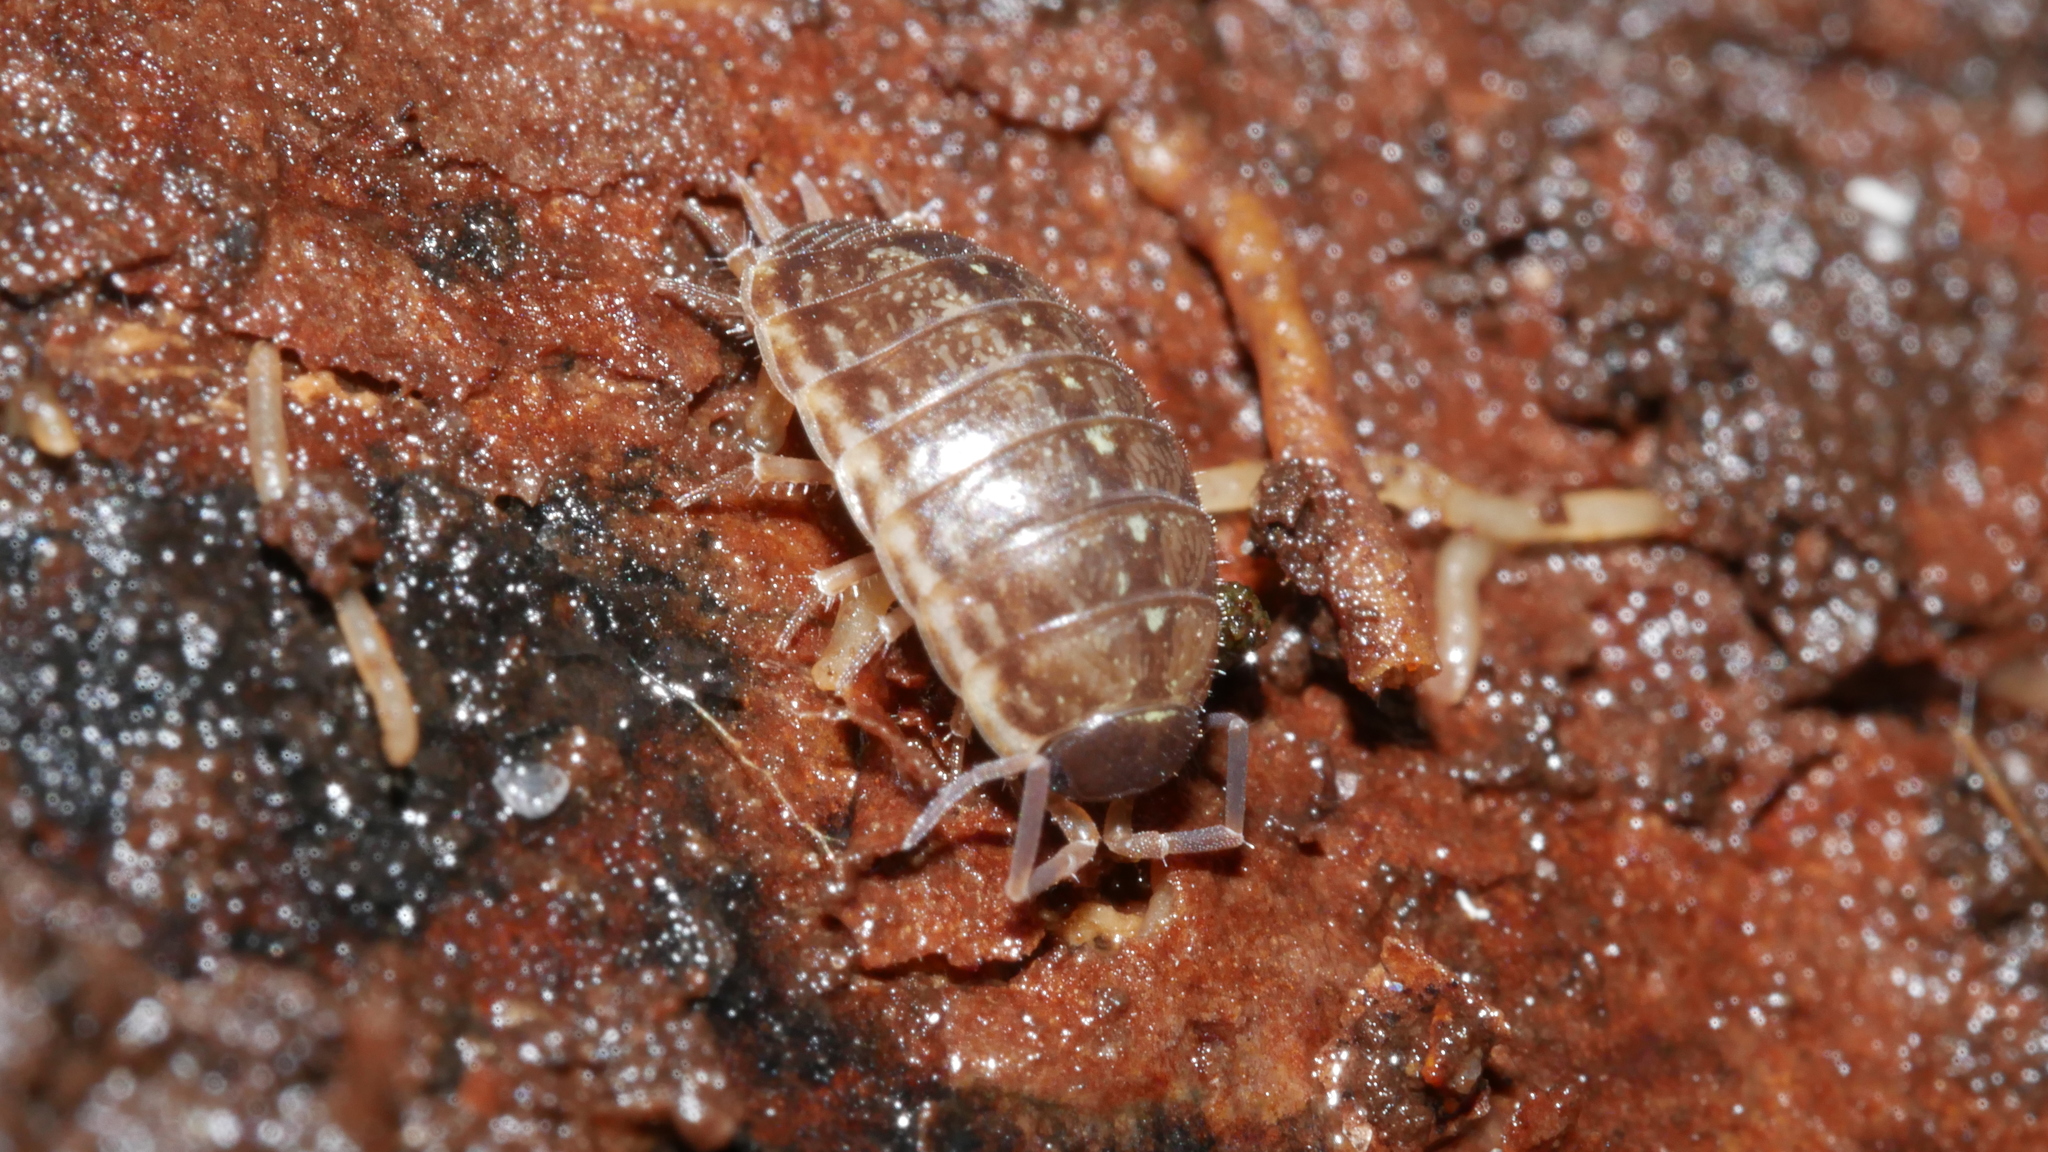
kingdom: Animalia
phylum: Arthropoda
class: Malacostraca
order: Isopoda
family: Philosciidae
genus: Philoscia
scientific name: Philoscia muscorum
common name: Common striped woodlouse
